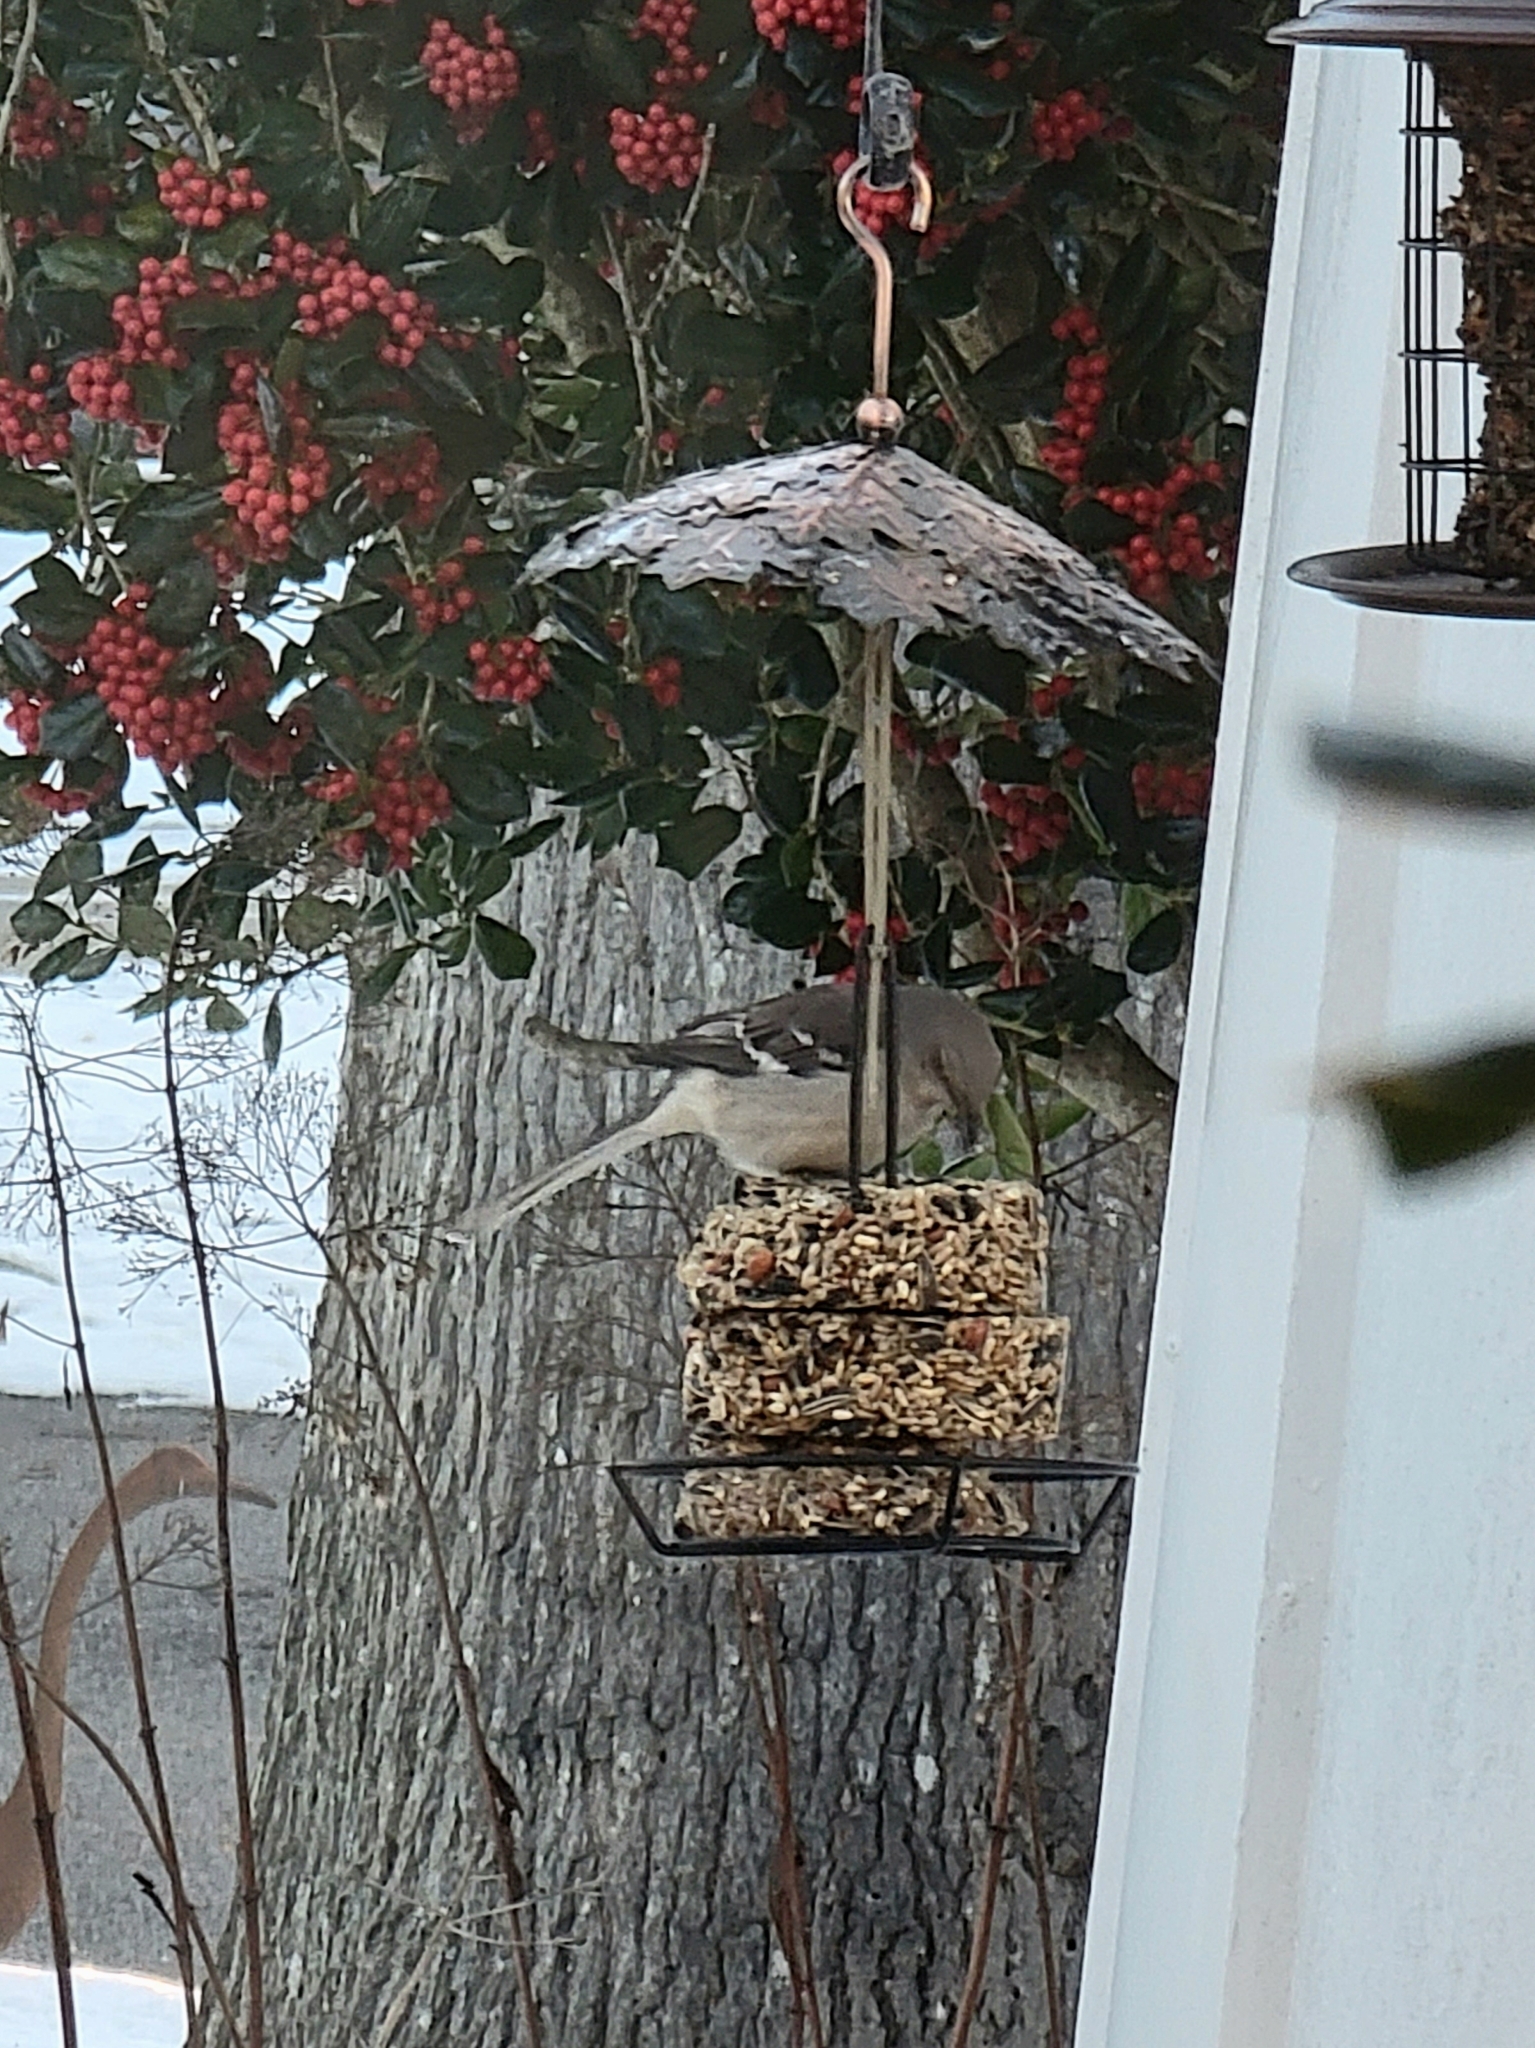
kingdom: Animalia
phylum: Chordata
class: Aves
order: Passeriformes
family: Mimidae
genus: Mimus
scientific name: Mimus polyglottos
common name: Northern mockingbird
